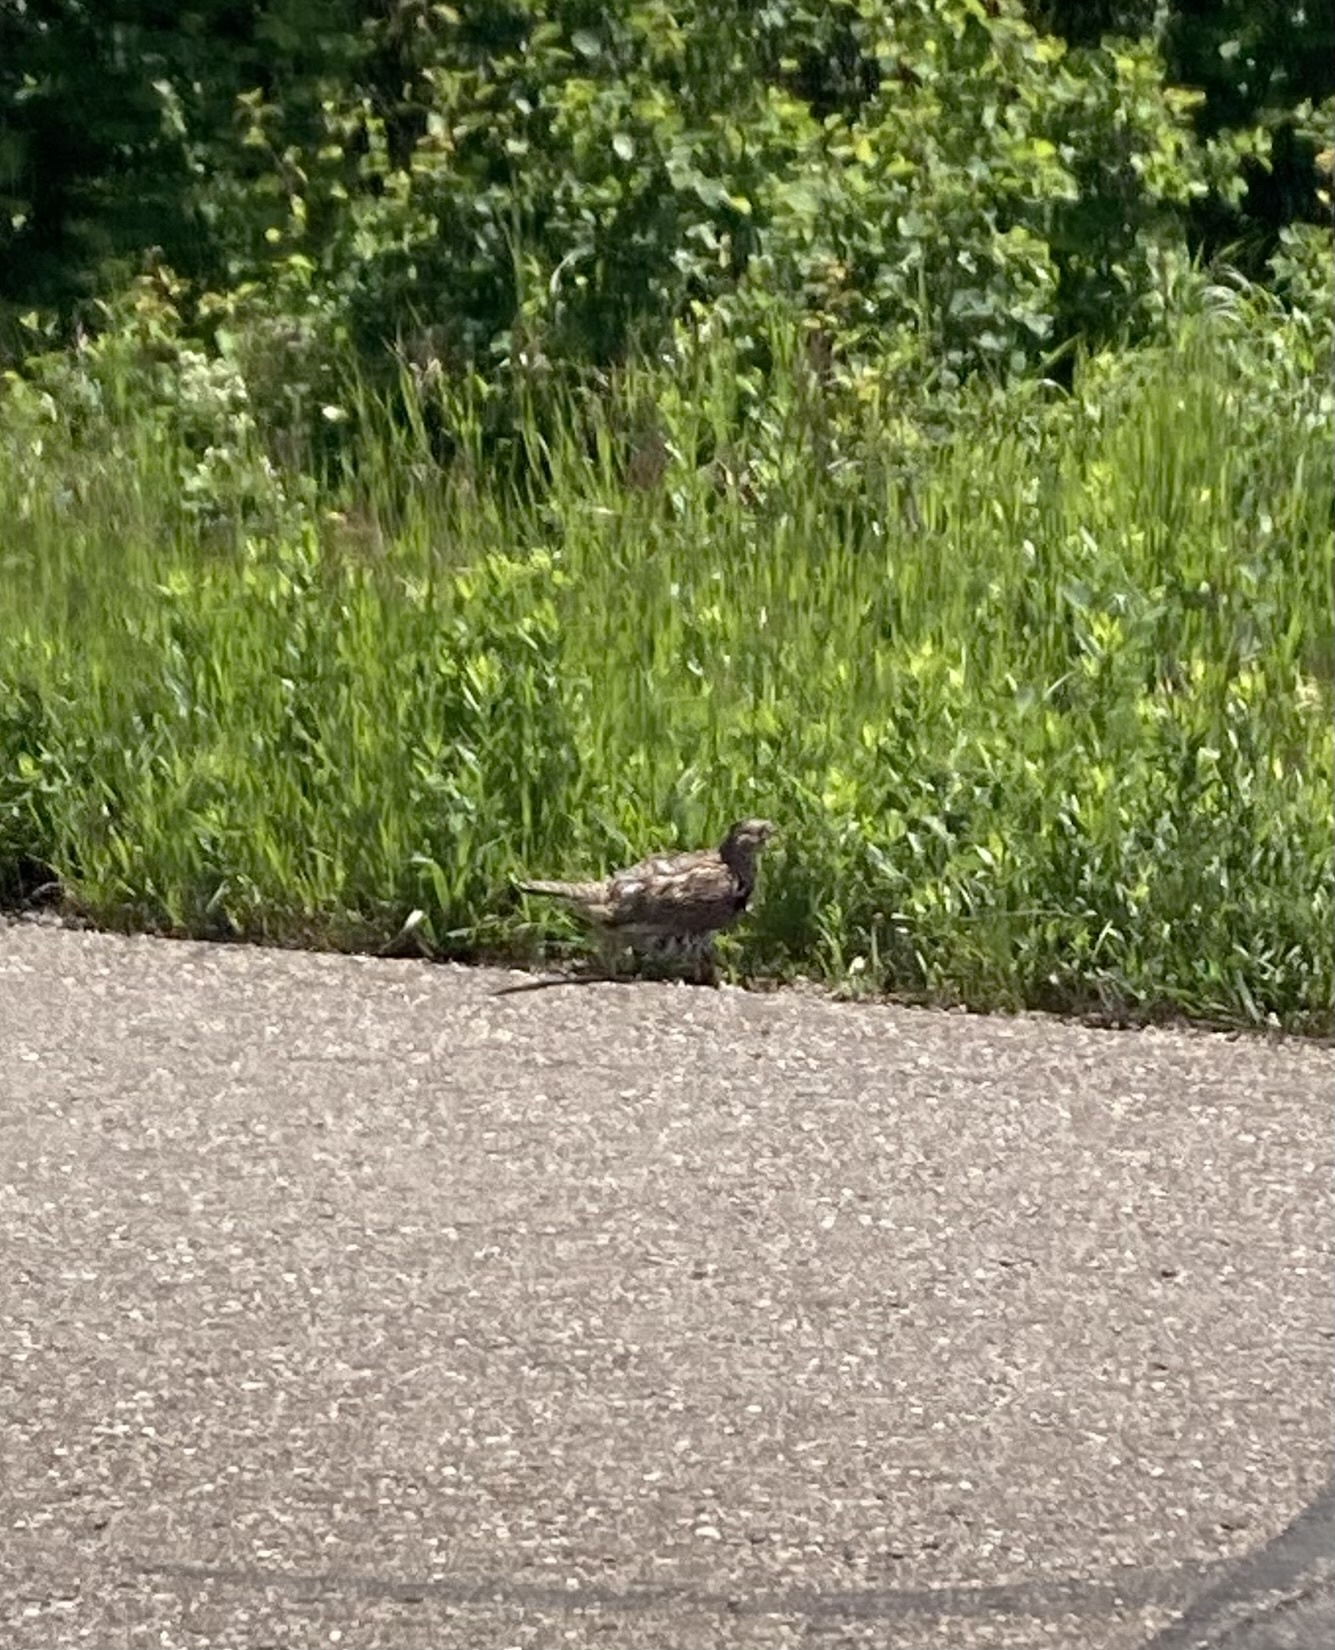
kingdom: Animalia
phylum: Chordata
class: Aves
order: Galliformes
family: Phasianidae
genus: Bonasa
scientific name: Bonasa umbellus
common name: Ruffed grouse
